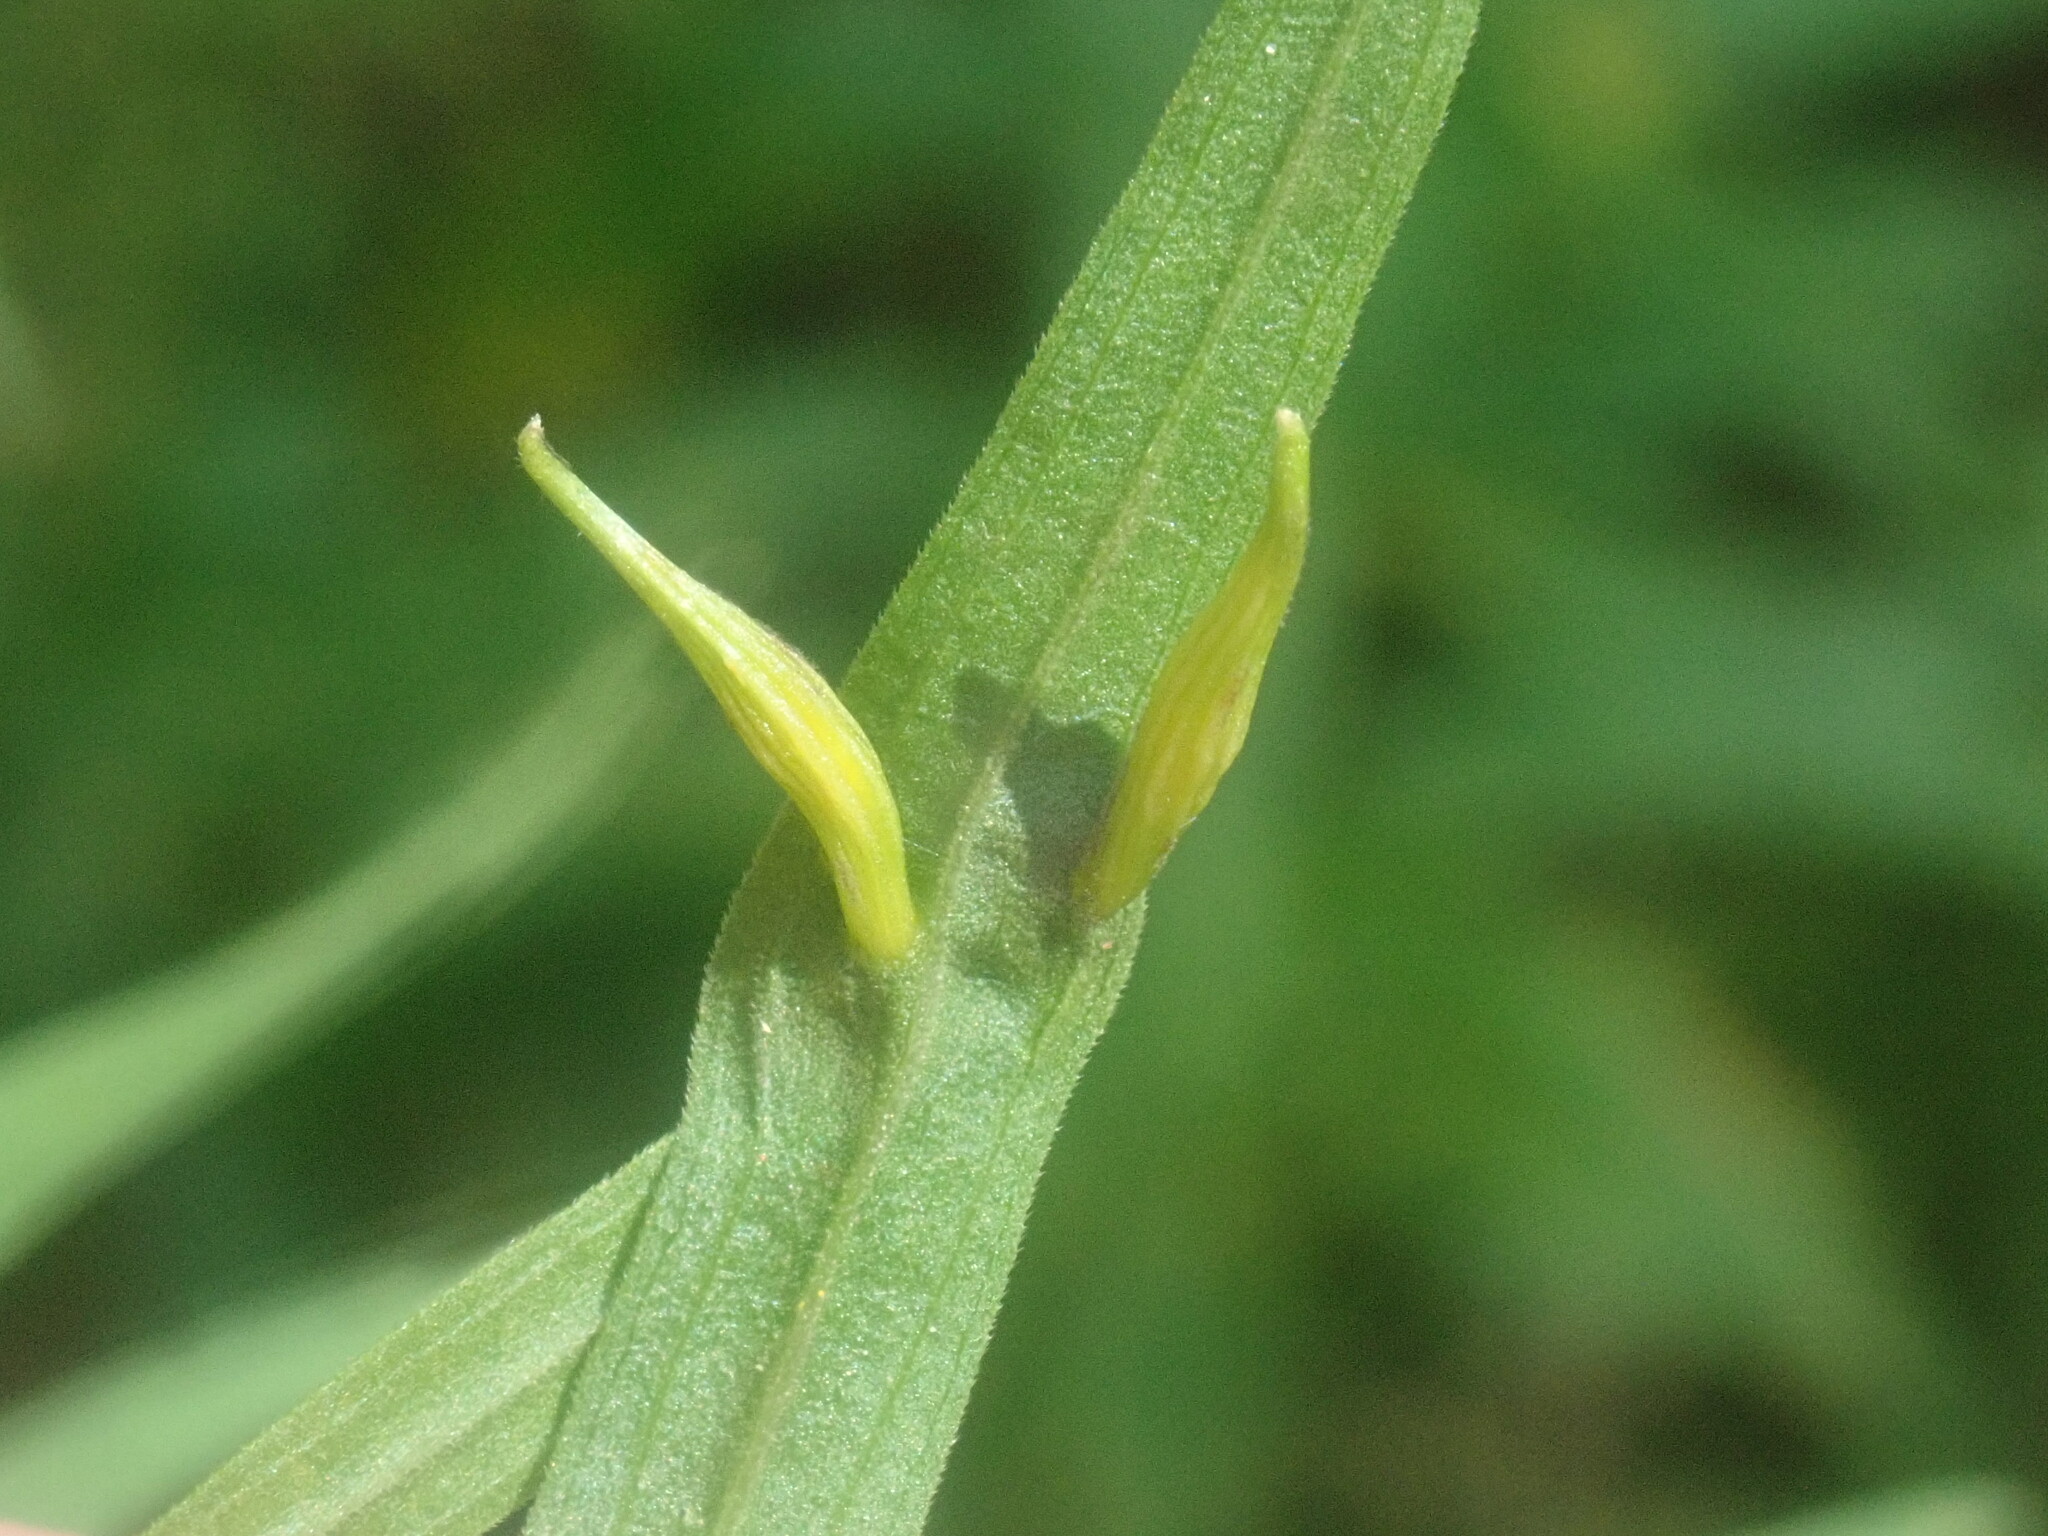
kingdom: Animalia
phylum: Arthropoda
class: Insecta
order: Diptera
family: Cecidomyiidae
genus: Rhopalomyia
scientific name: Rhopalomyia fusiformae
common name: Goldentop sessile gall midge
